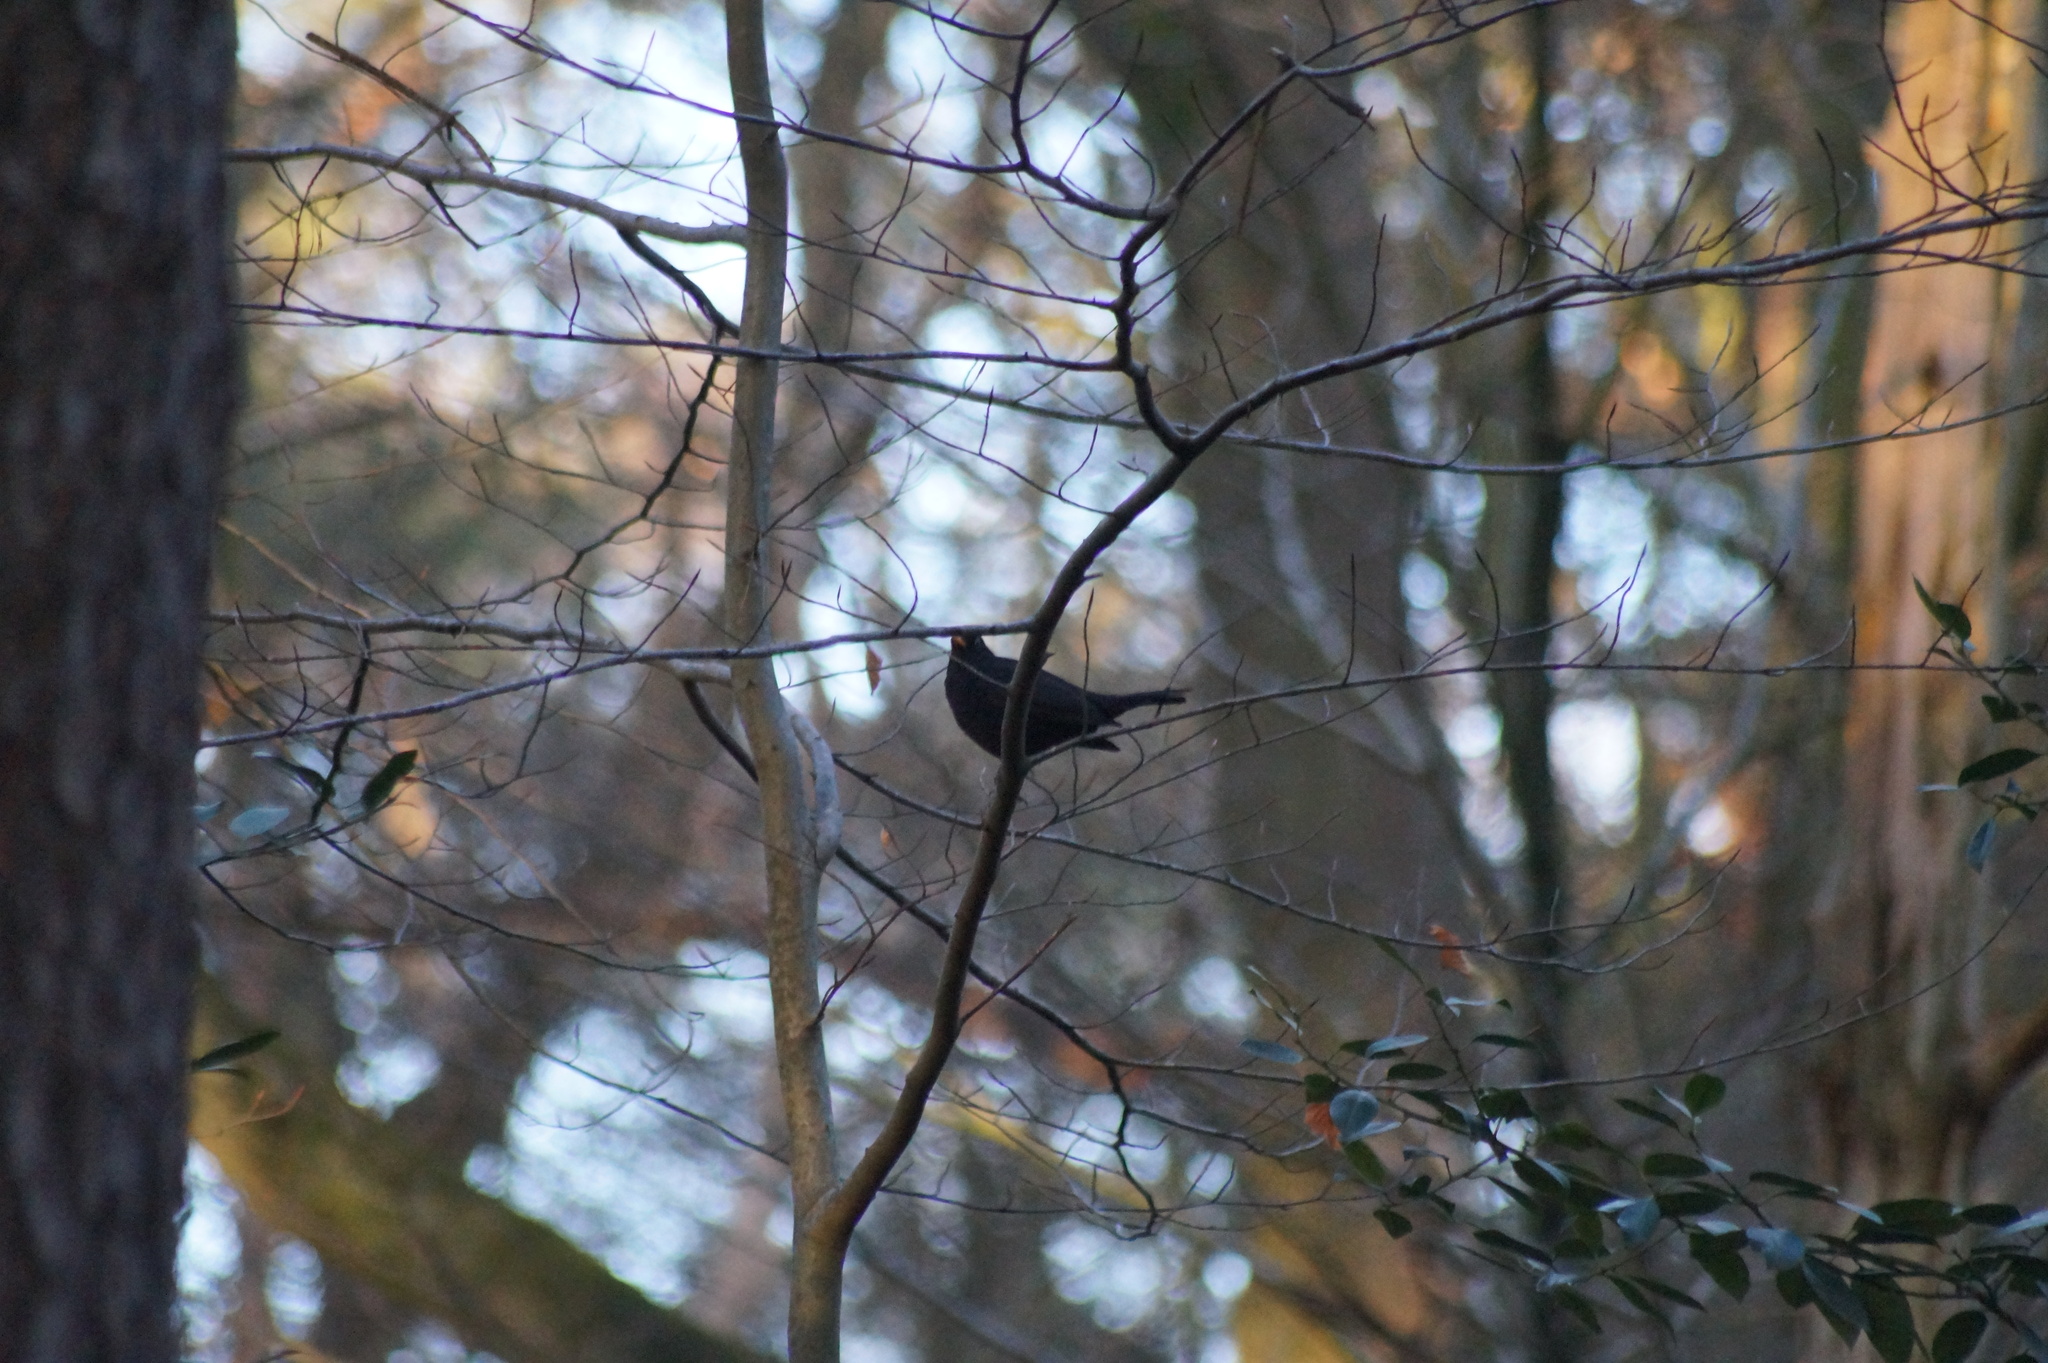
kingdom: Animalia
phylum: Chordata
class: Aves
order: Passeriformes
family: Turdidae
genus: Turdus
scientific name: Turdus merula
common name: Common blackbird
